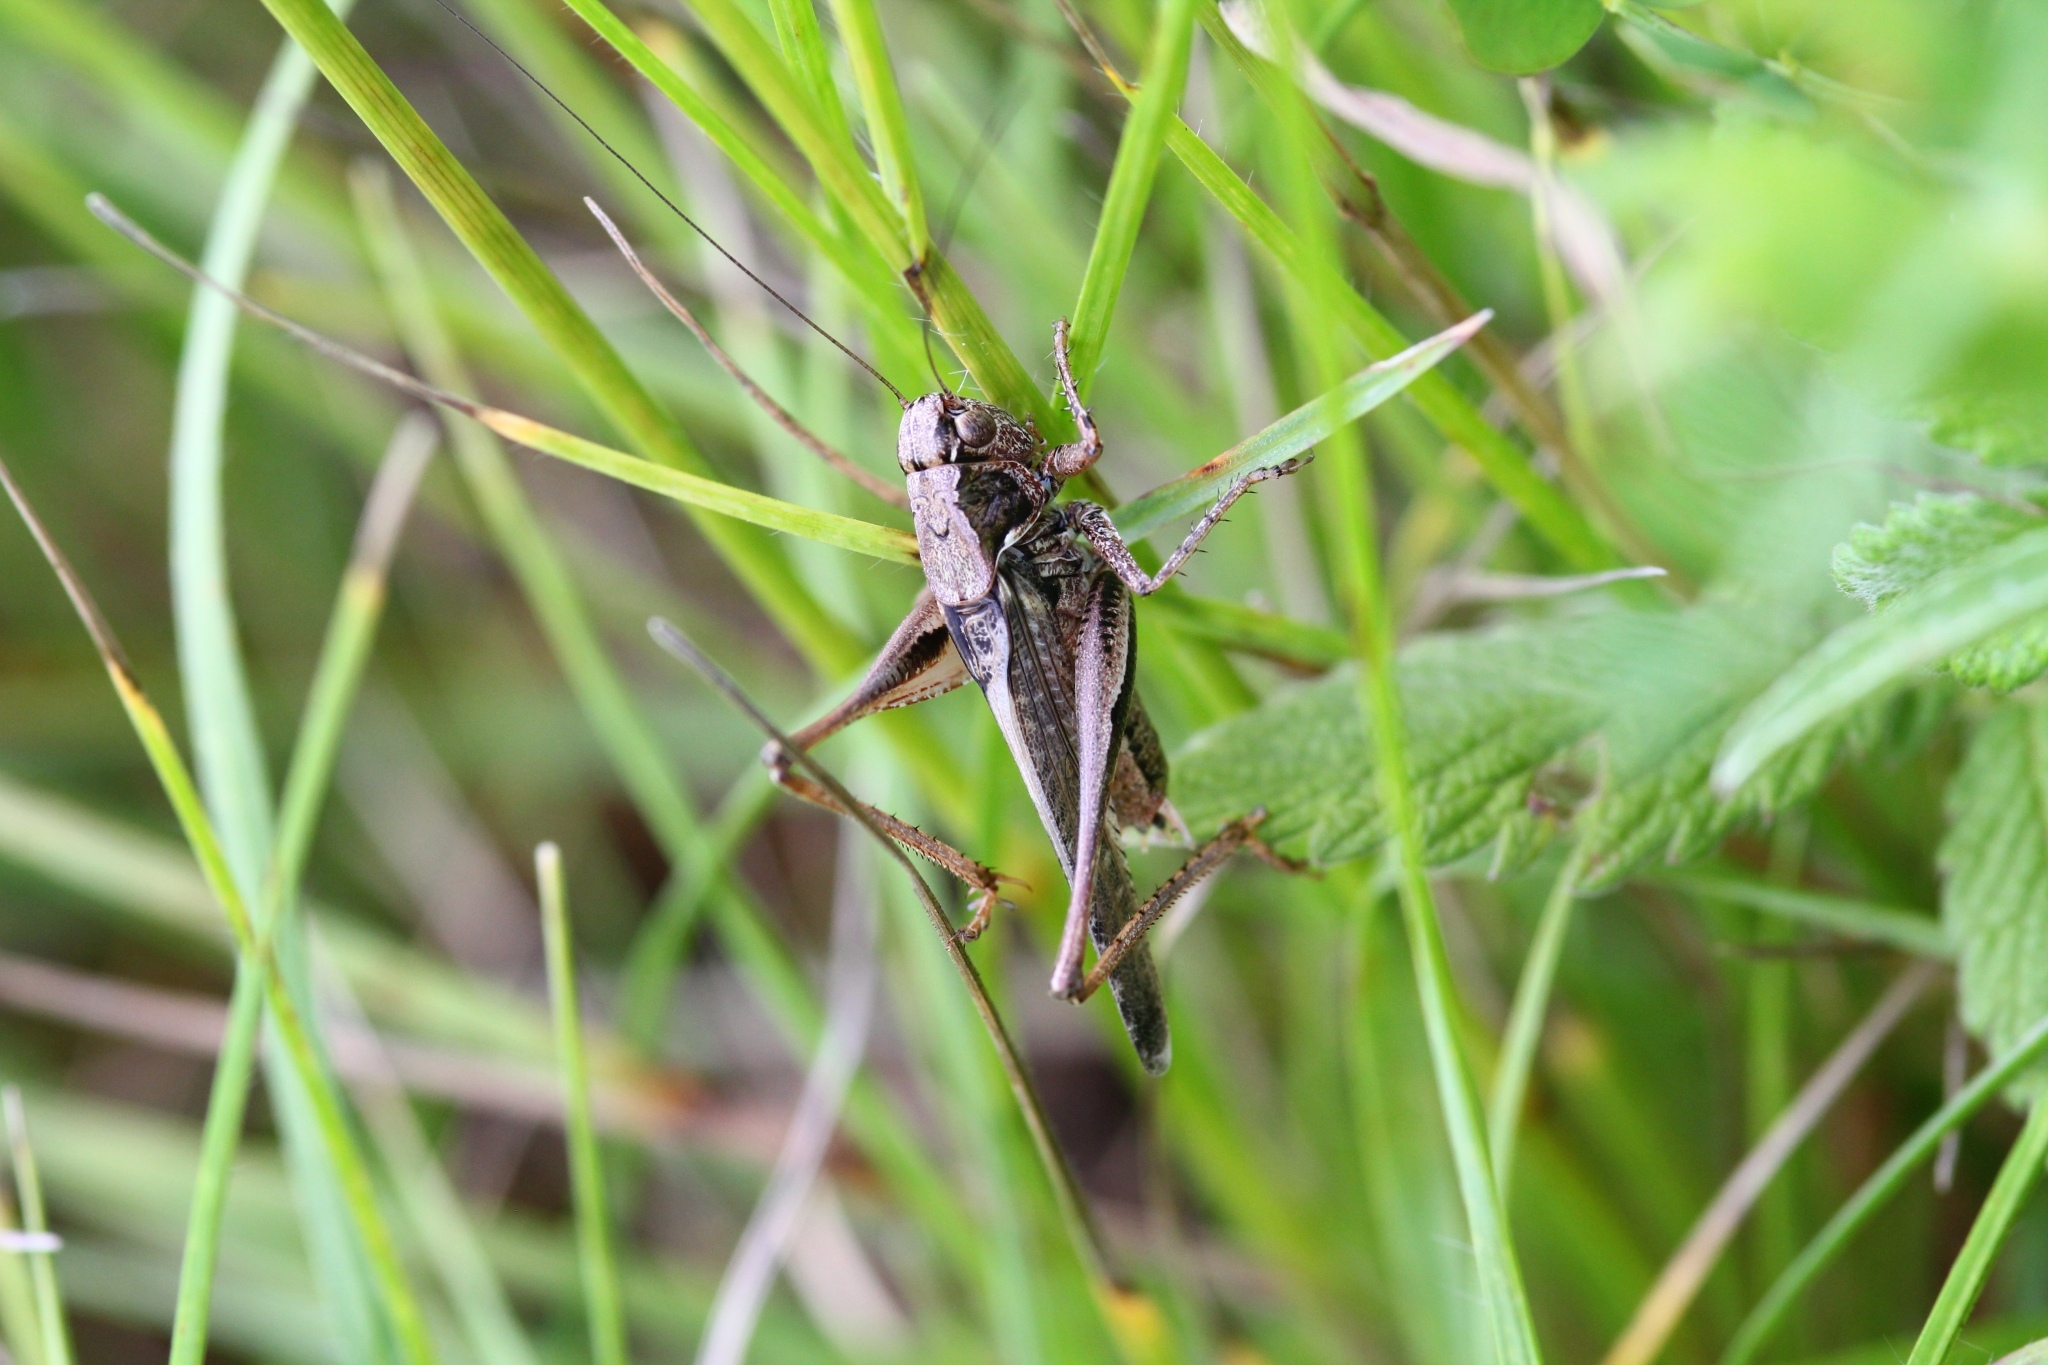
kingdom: Animalia
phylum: Arthropoda
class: Insecta
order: Orthoptera
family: Tettigoniidae
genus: Platycleis
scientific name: Platycleis albopunctata
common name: Grey bush-cricket
